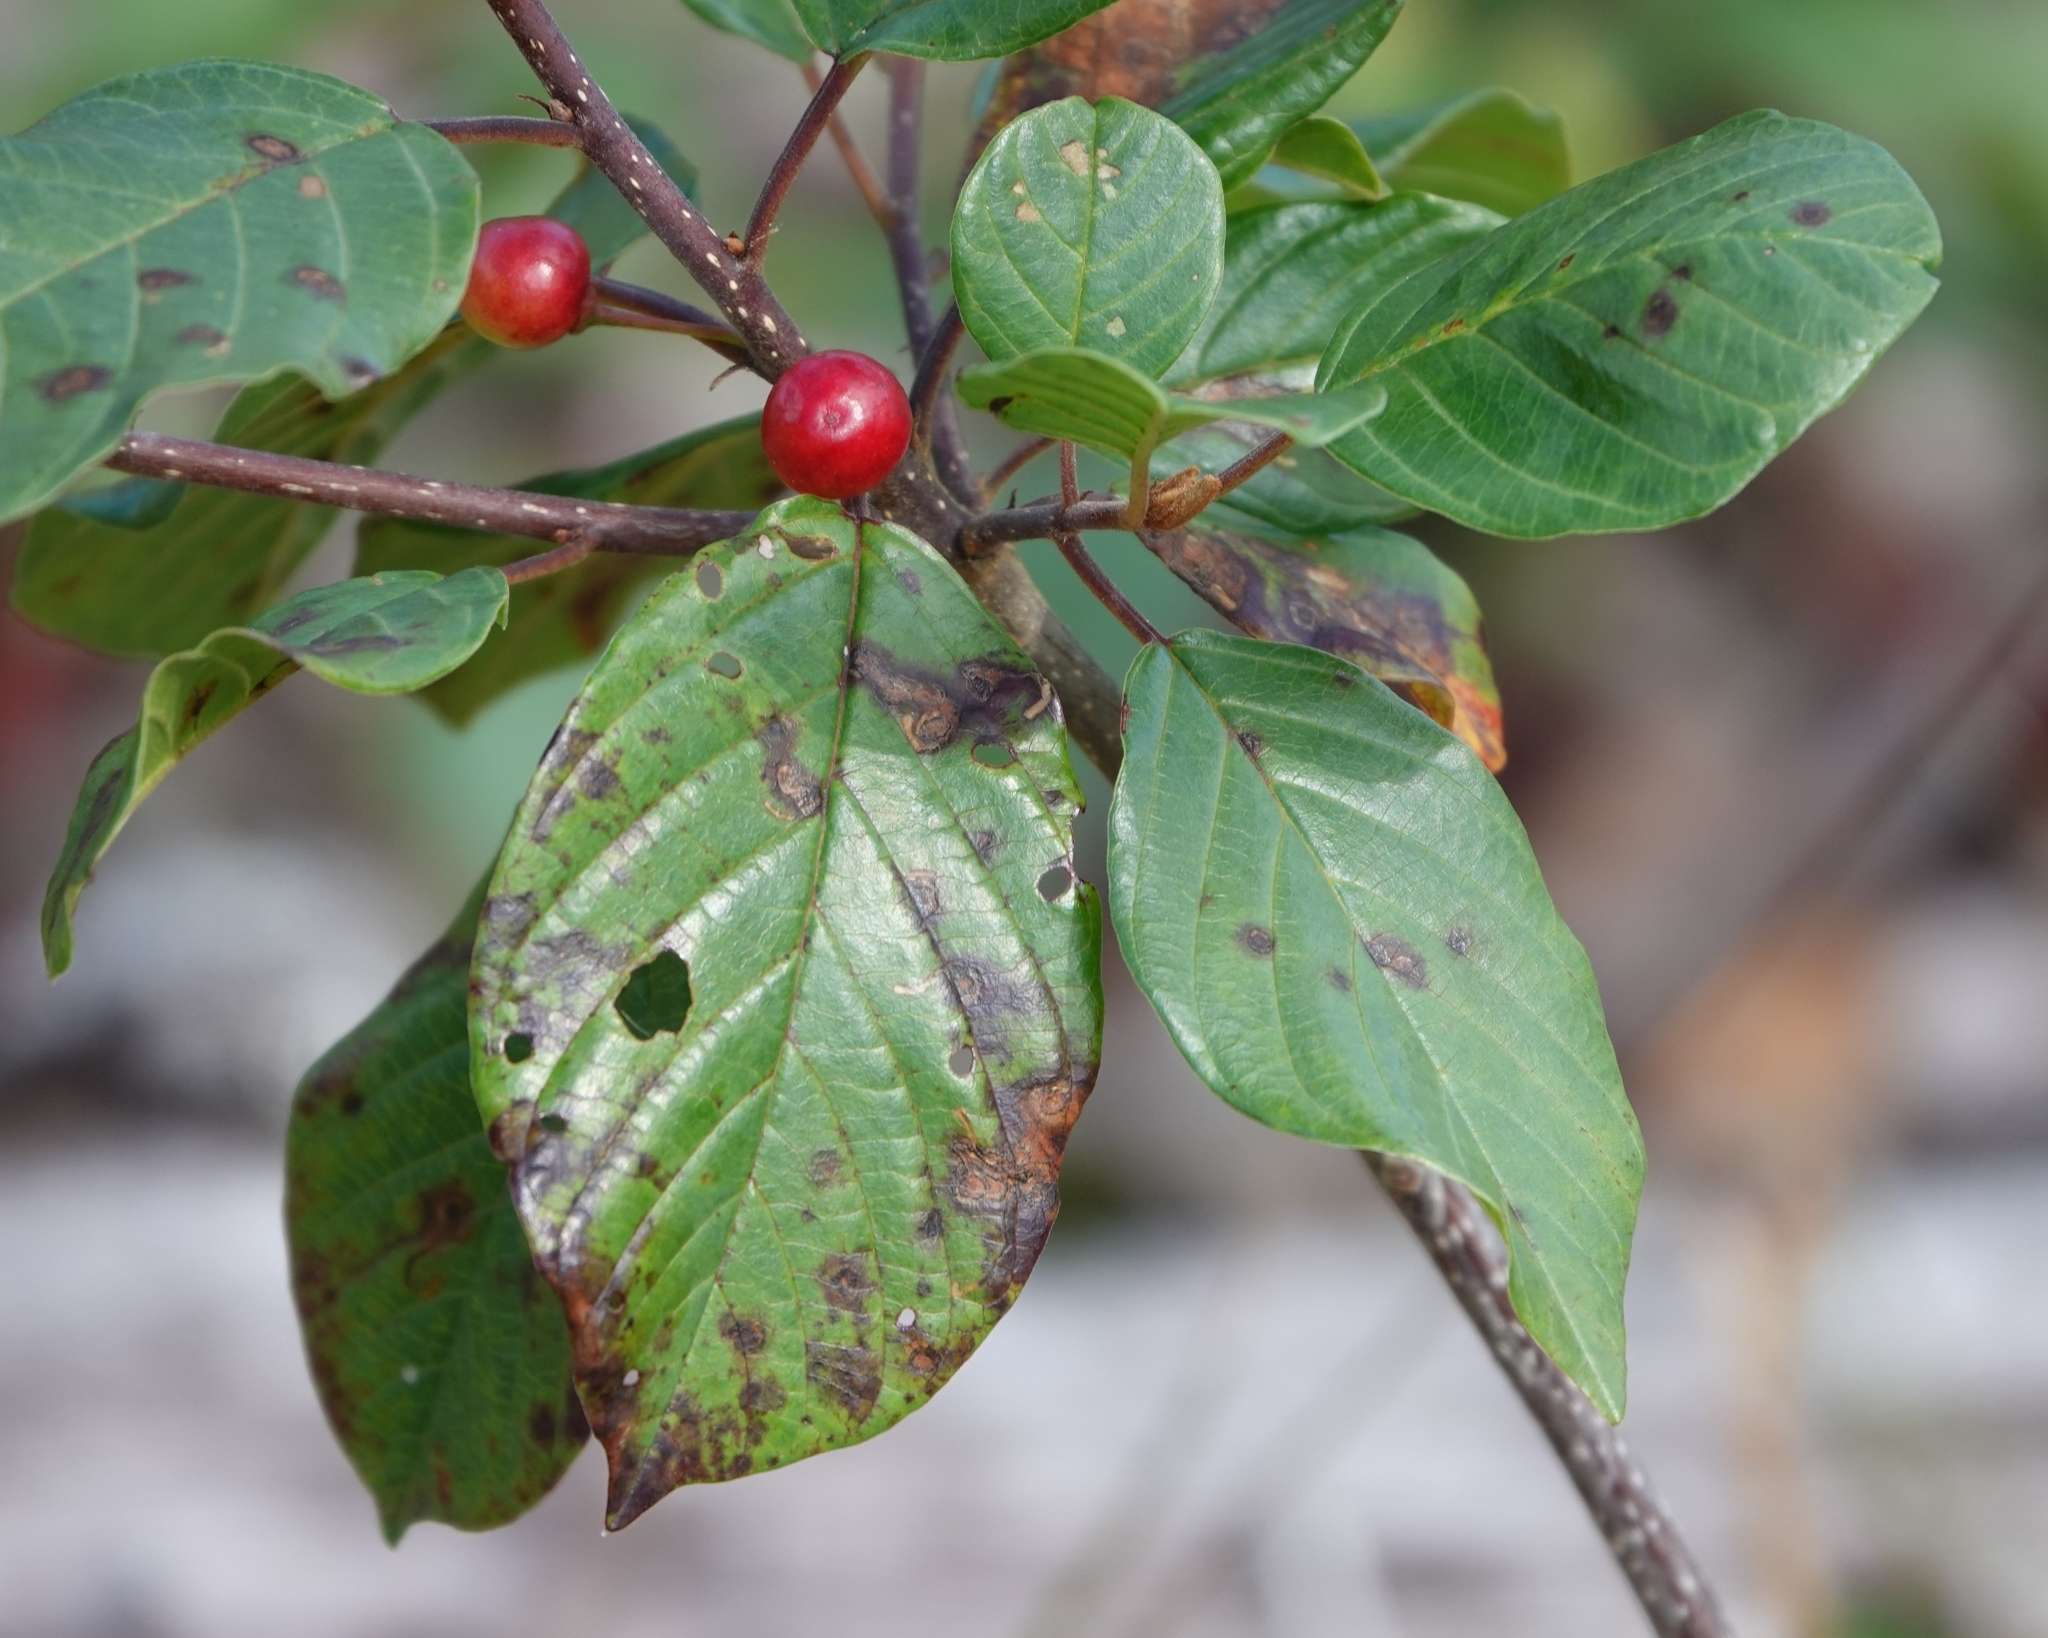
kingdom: Plantae
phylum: Tracheophyta
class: Magnoliopsida
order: Rosales
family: Rhamnaceae
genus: Frangula
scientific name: Frangula alnus
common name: Alder buckthorn
